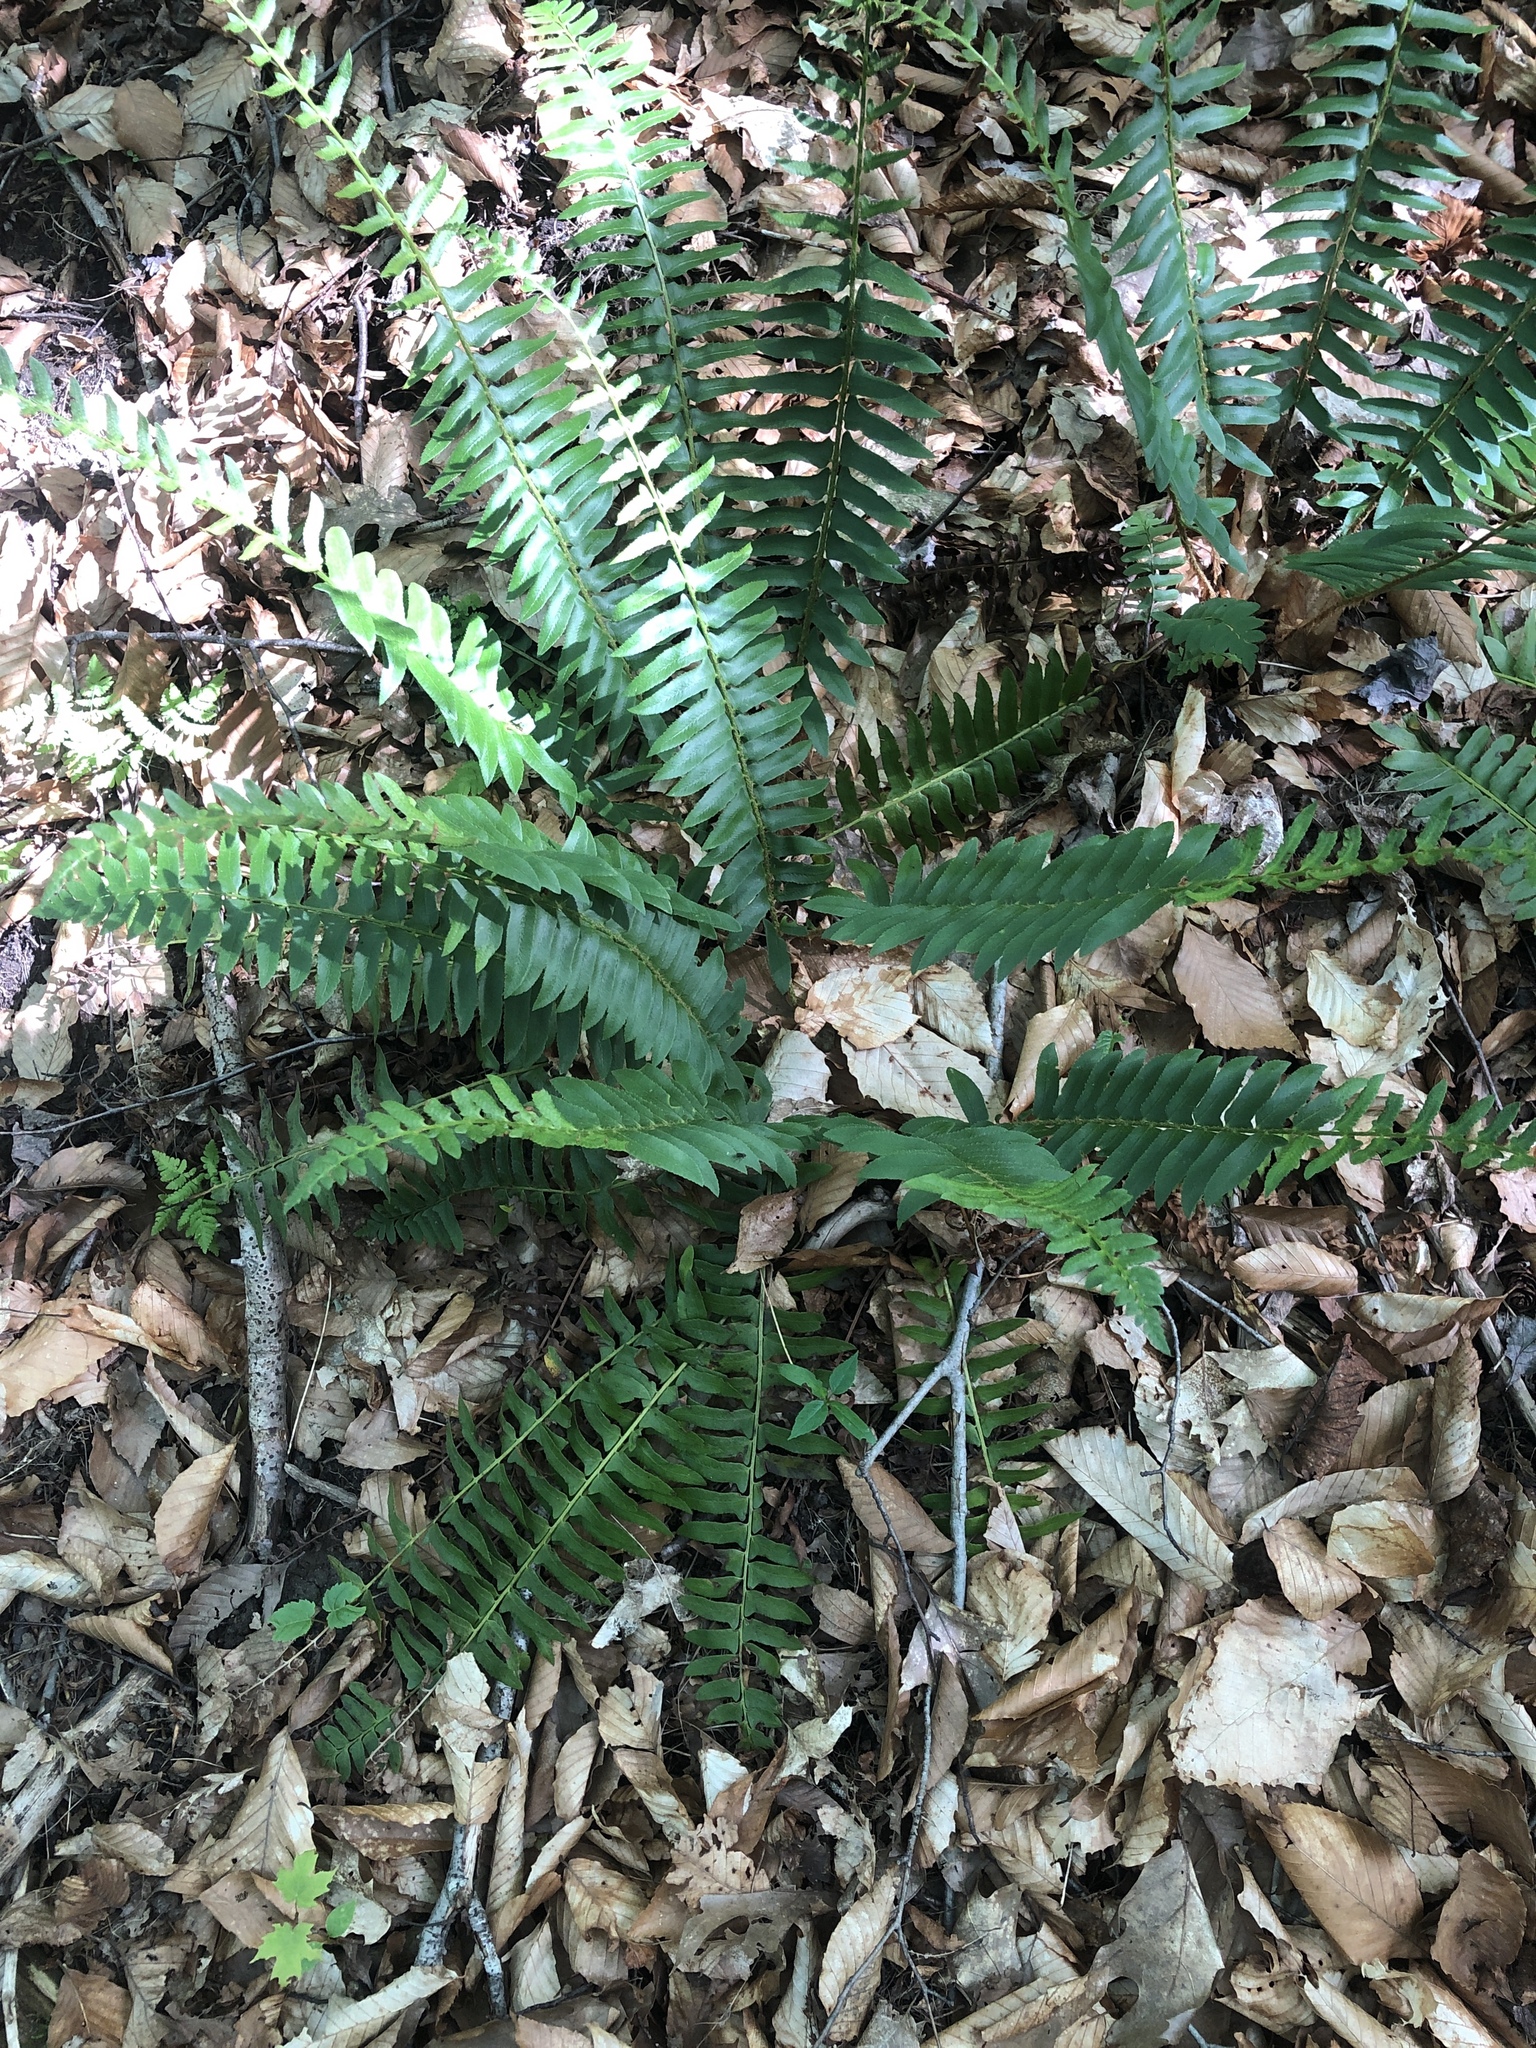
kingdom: Plantae
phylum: Tracheophyta
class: Polypodiopsida
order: Polypodiales
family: Dryopteridaceae
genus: Polystichum
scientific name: Polystichum acrostichoides
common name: Christmas fern
